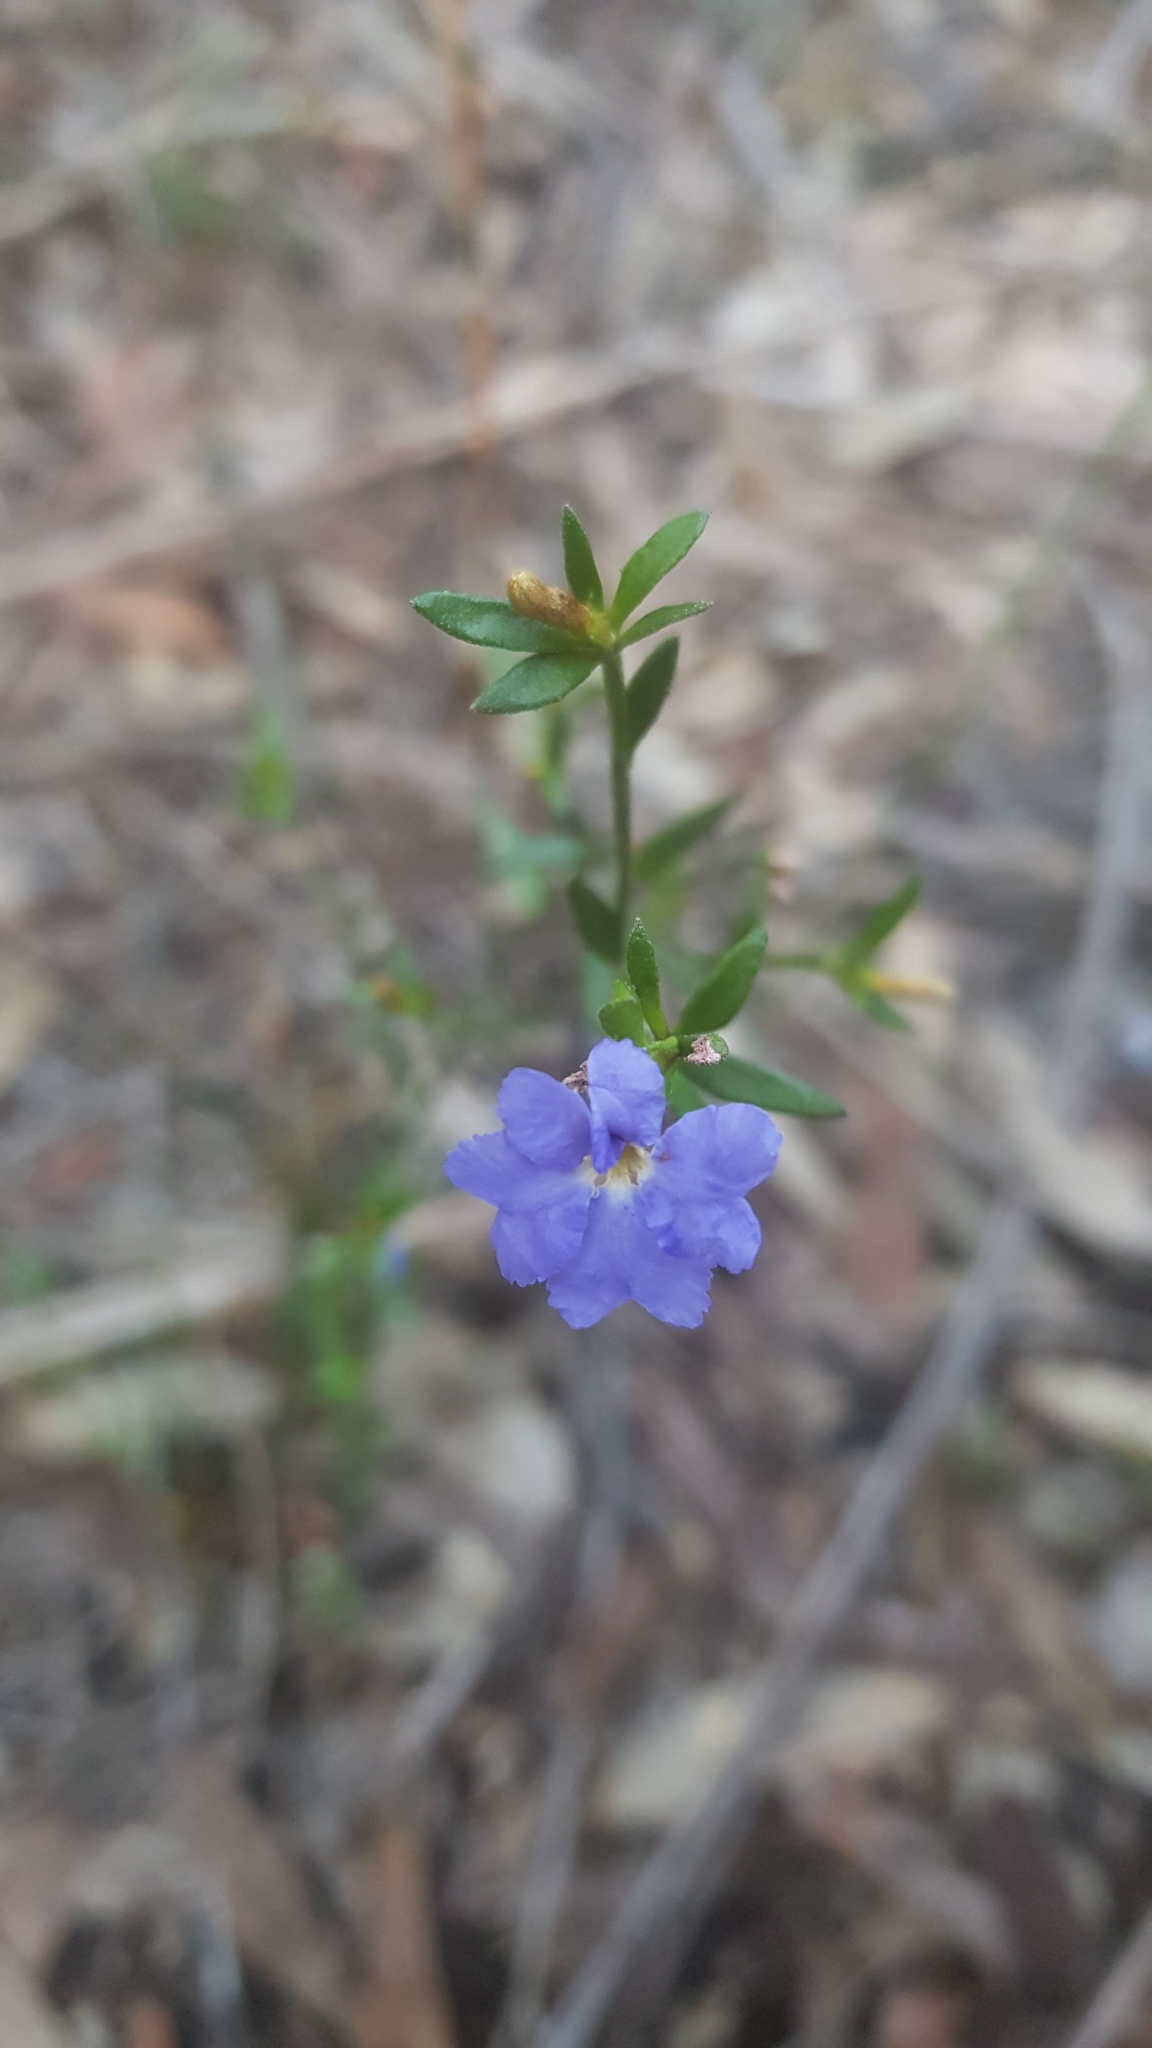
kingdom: Plantae
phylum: Tracheophyta
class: Magnoliopsida
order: Asterales
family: Goodeniaceae
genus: Dampiera
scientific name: Dampiera stricta
